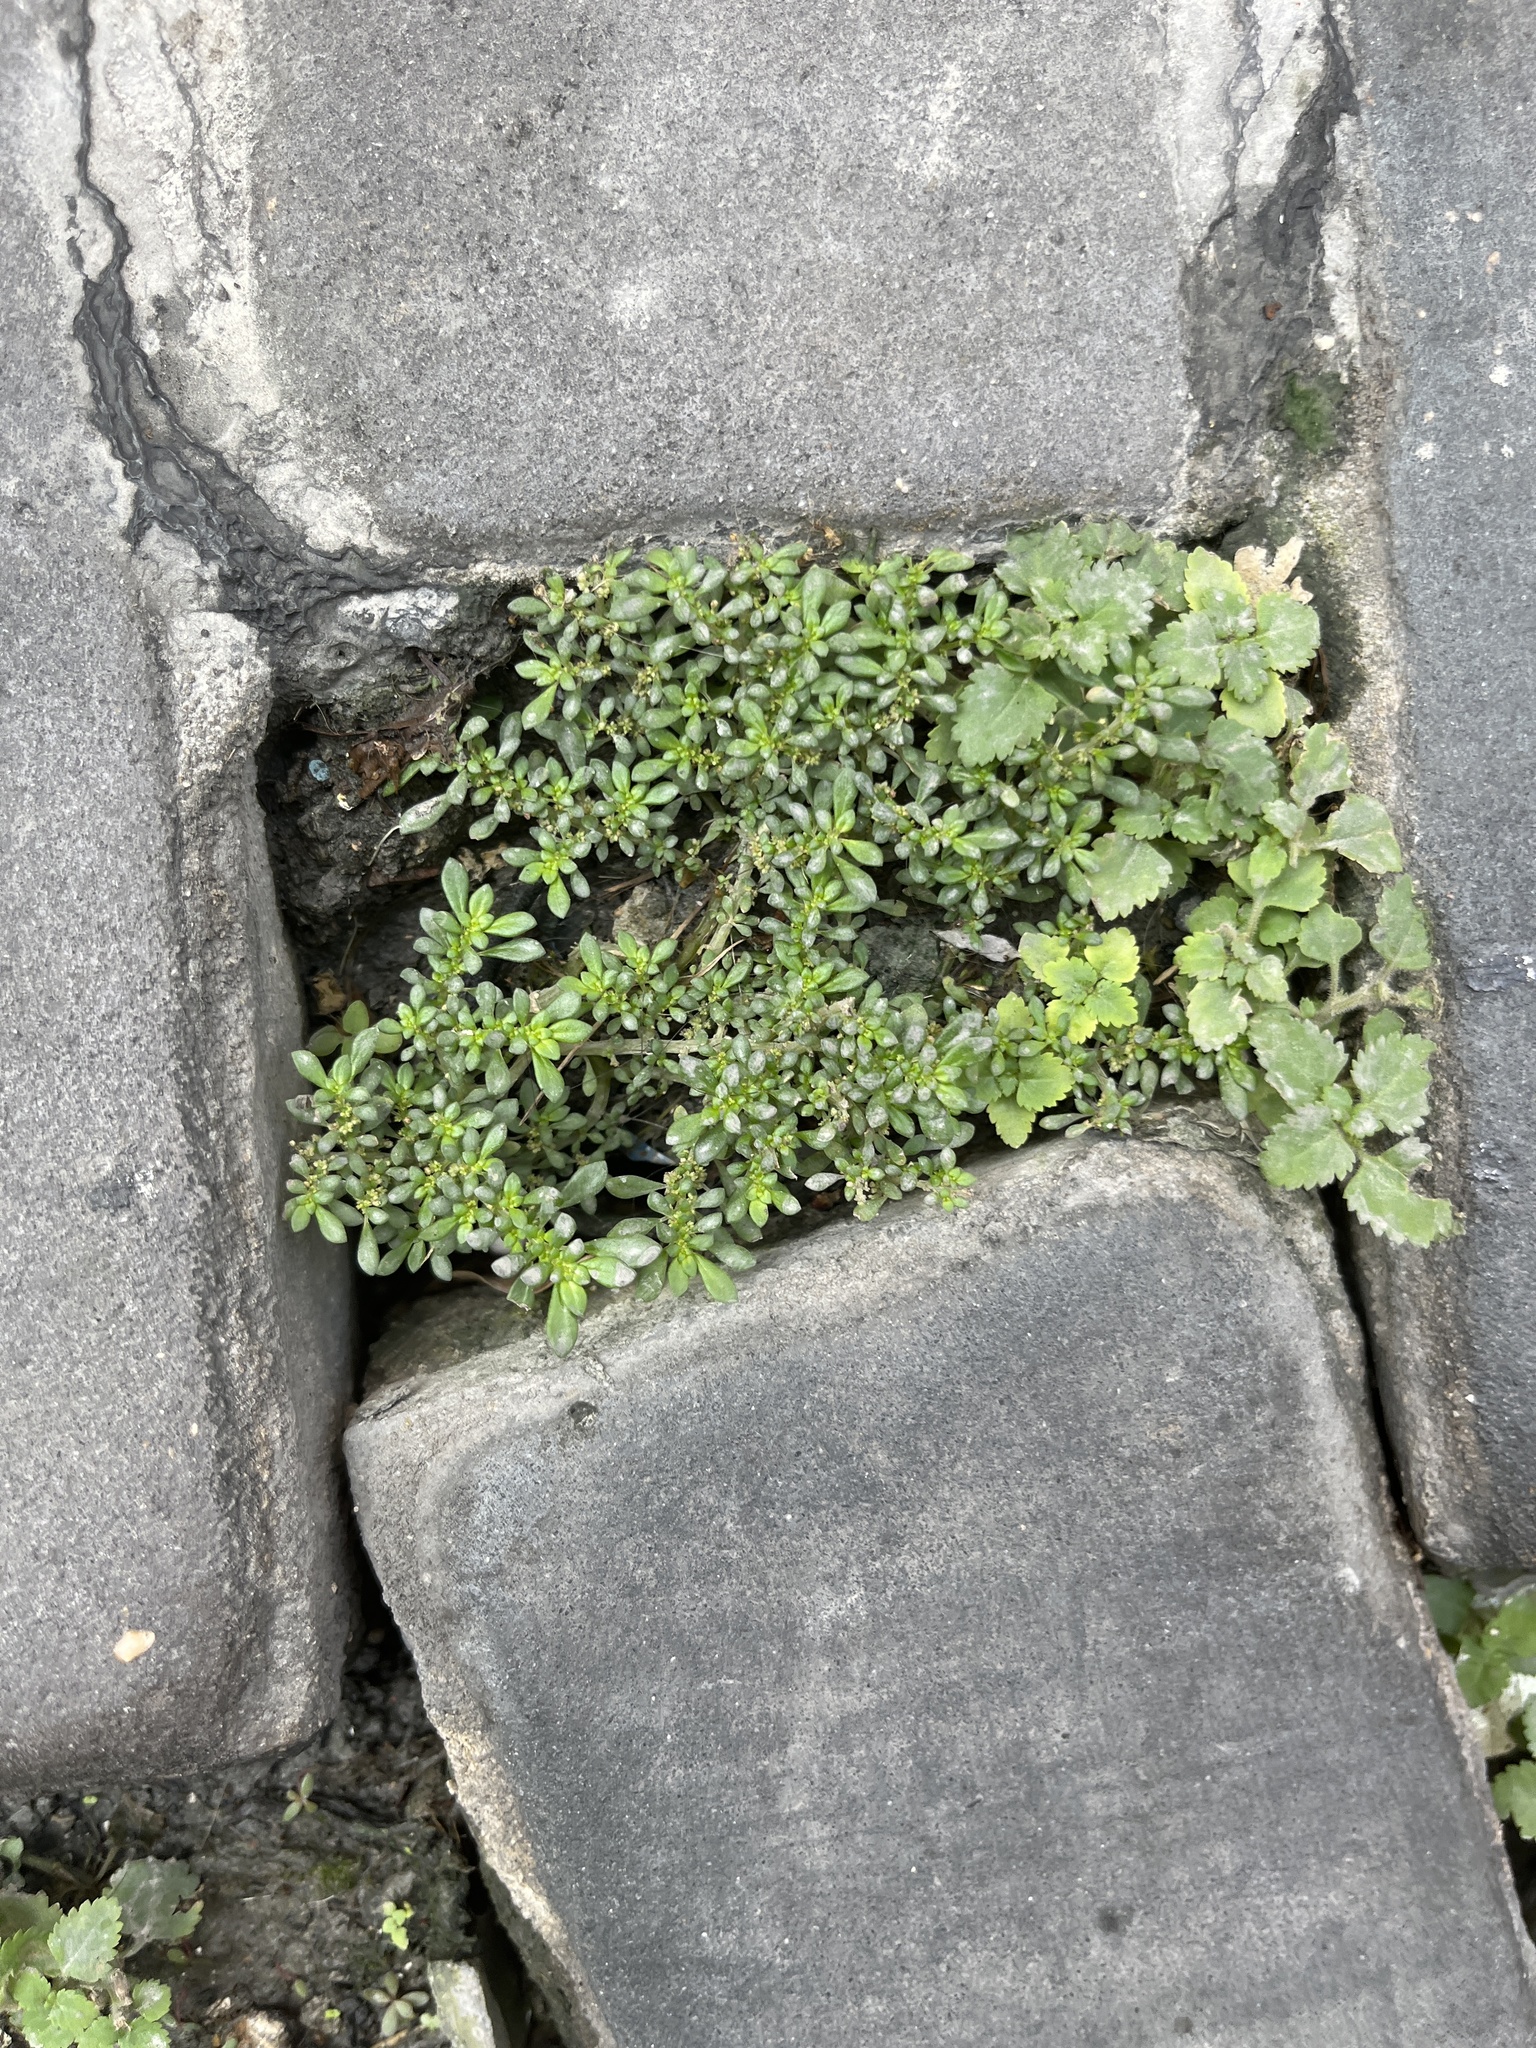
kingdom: Plantae
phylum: Tracheophyta
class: Magnoliopsida
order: Rosales
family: Urticaceae
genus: Pilea
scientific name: Pilea microphylla
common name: Artillery-plant
